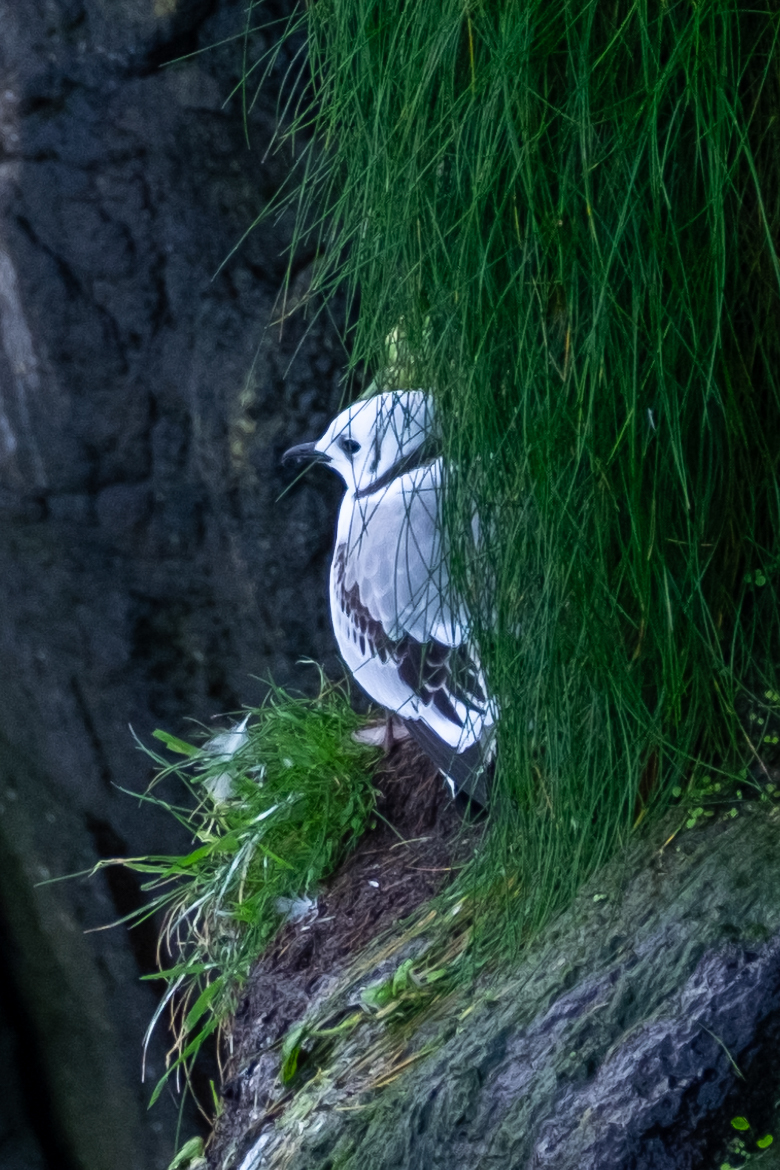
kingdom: Animalia
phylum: Chordata
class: Aves
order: Charadriiformes
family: Laridae
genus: Rissa
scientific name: Rissa tridactyla
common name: Black-legged kittiwake
